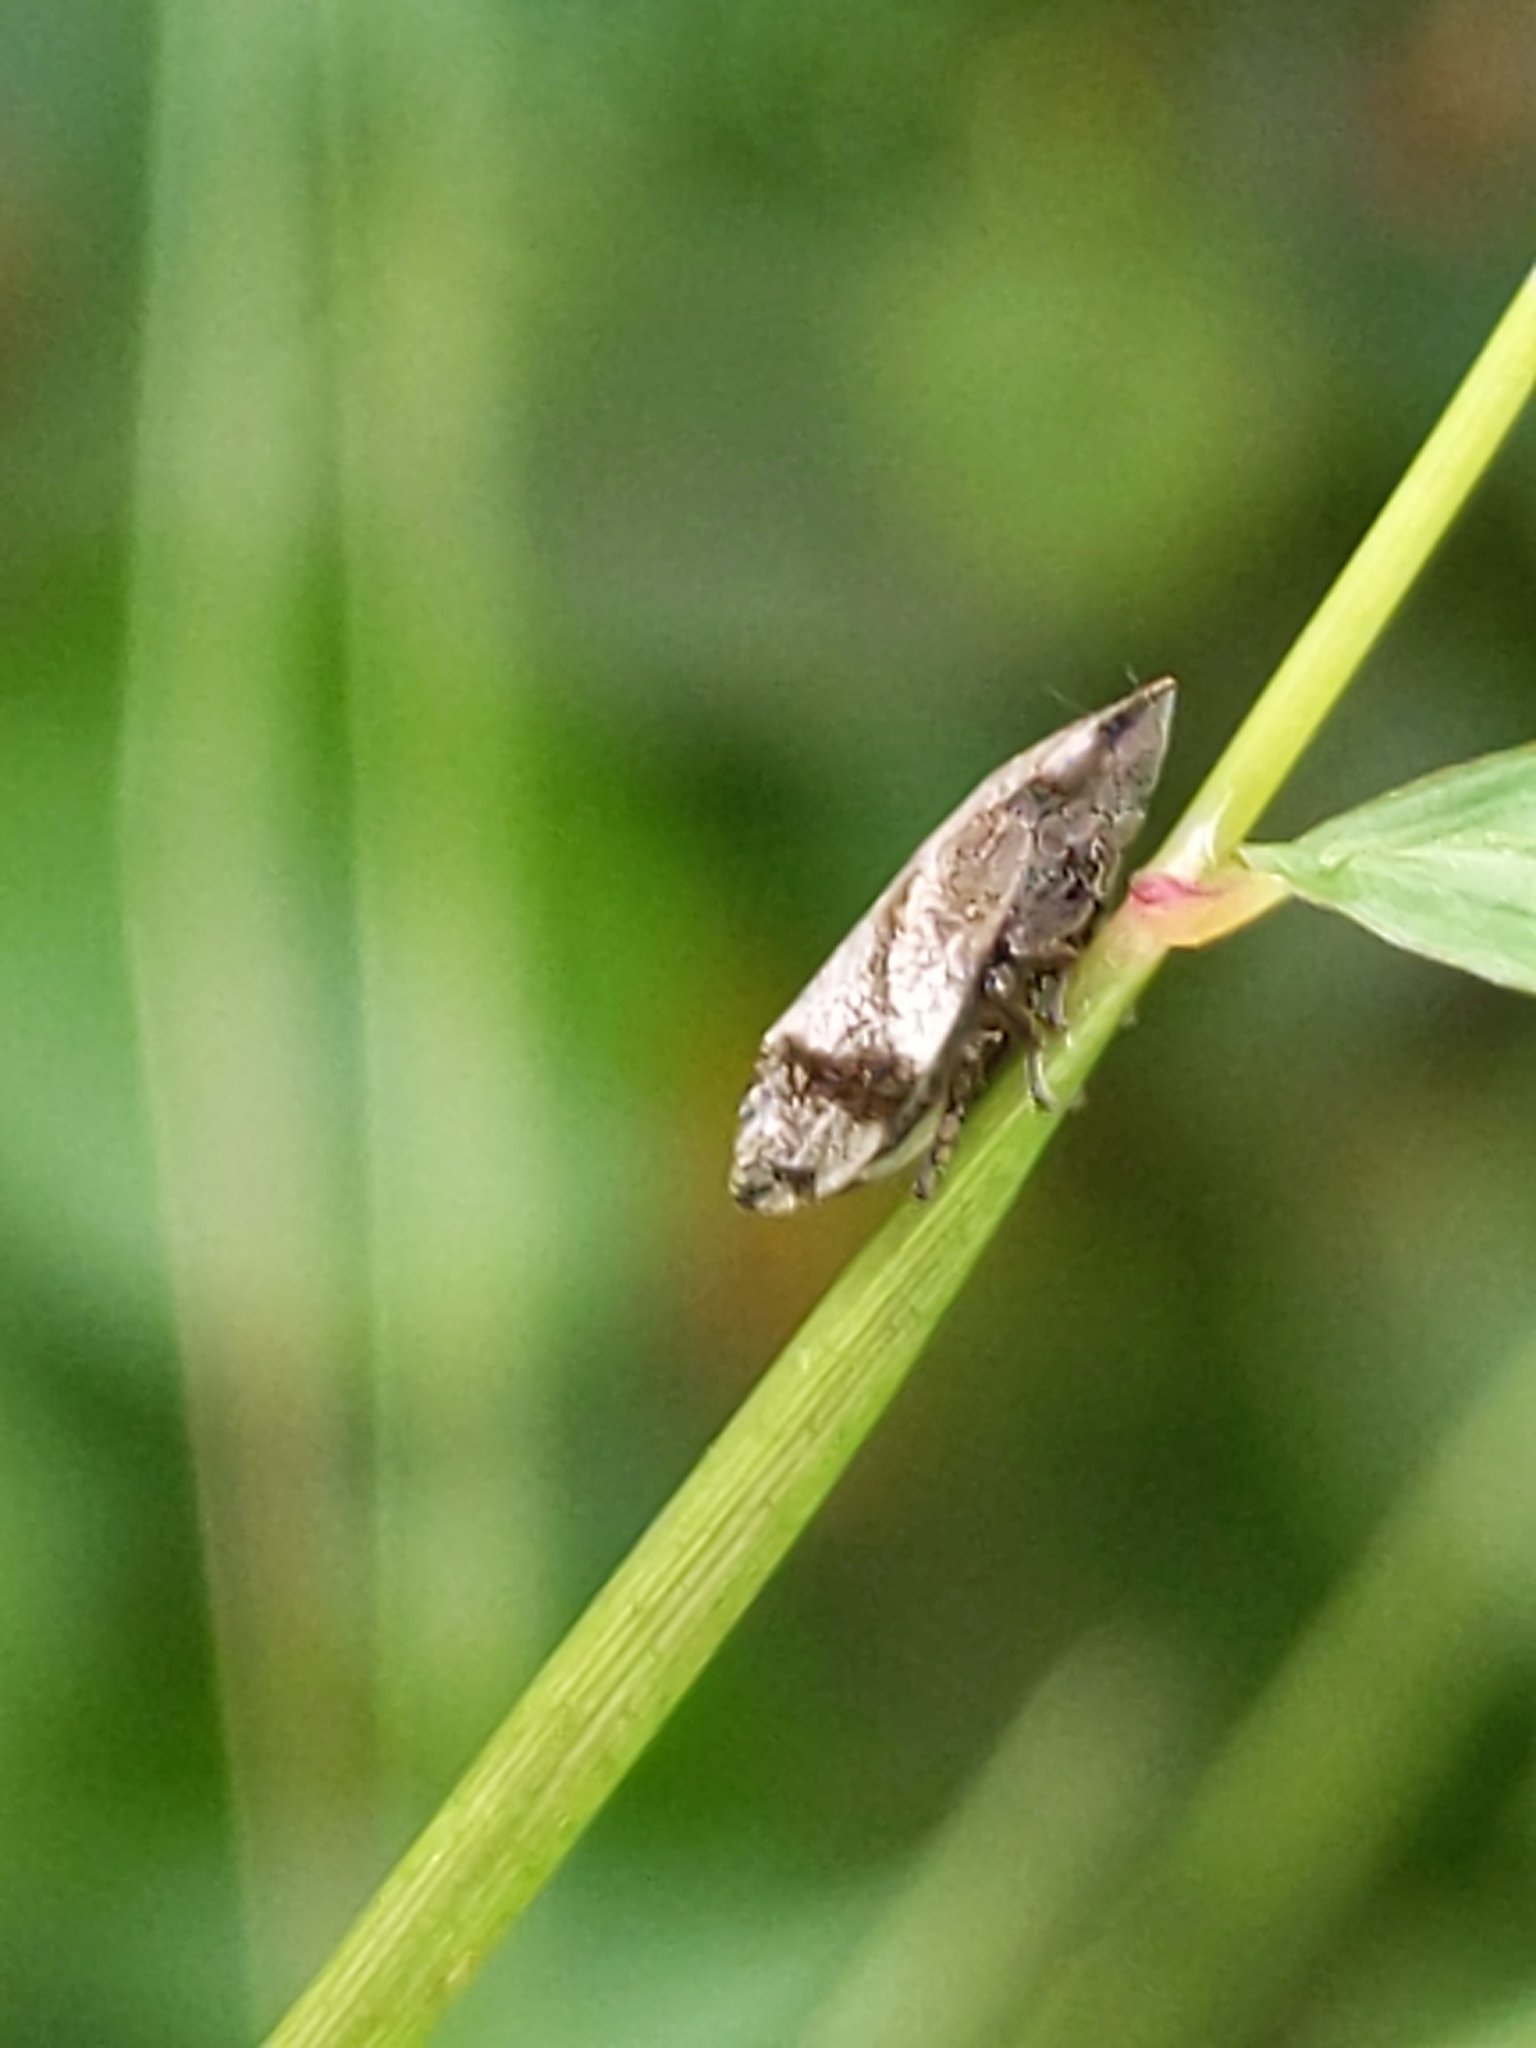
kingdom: Animalia
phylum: Arthropoda
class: Insecta
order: Hemiptera
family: Aphrophoridae
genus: Lepyronia
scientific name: Lepyronia quadrangularis
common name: Diamond-backed spittlebug
